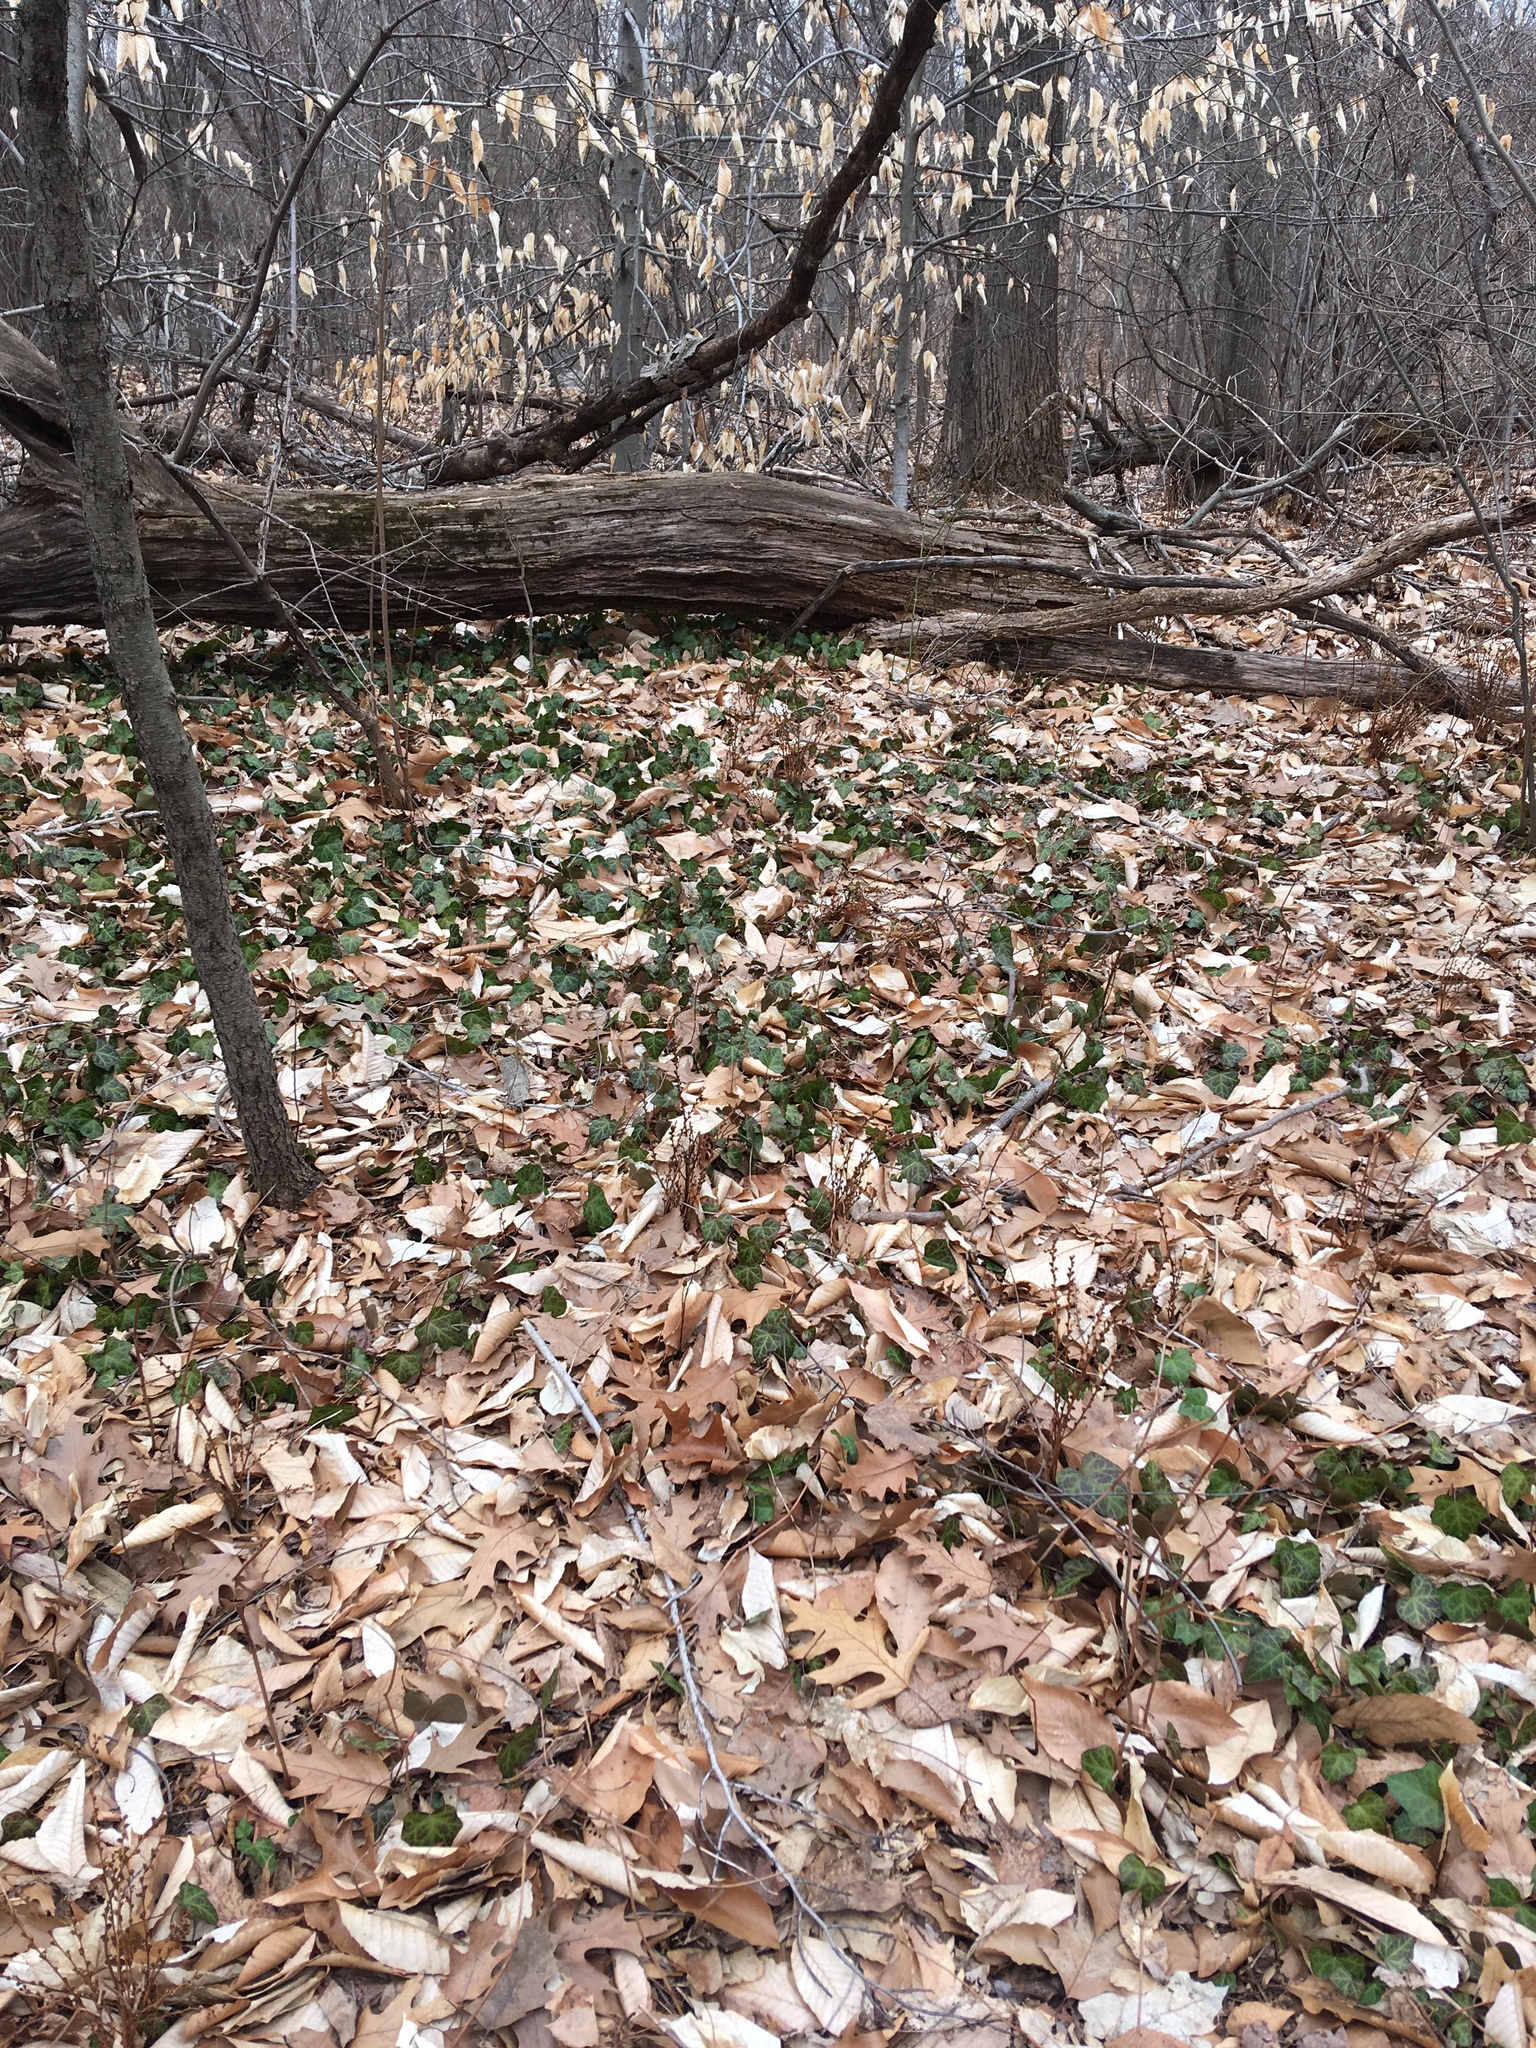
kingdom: Plantae
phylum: Tracheophyta
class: Magnoliopsida
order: Apiales
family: Araliaceae
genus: Hedera
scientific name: Hedera helix
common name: Ivy
